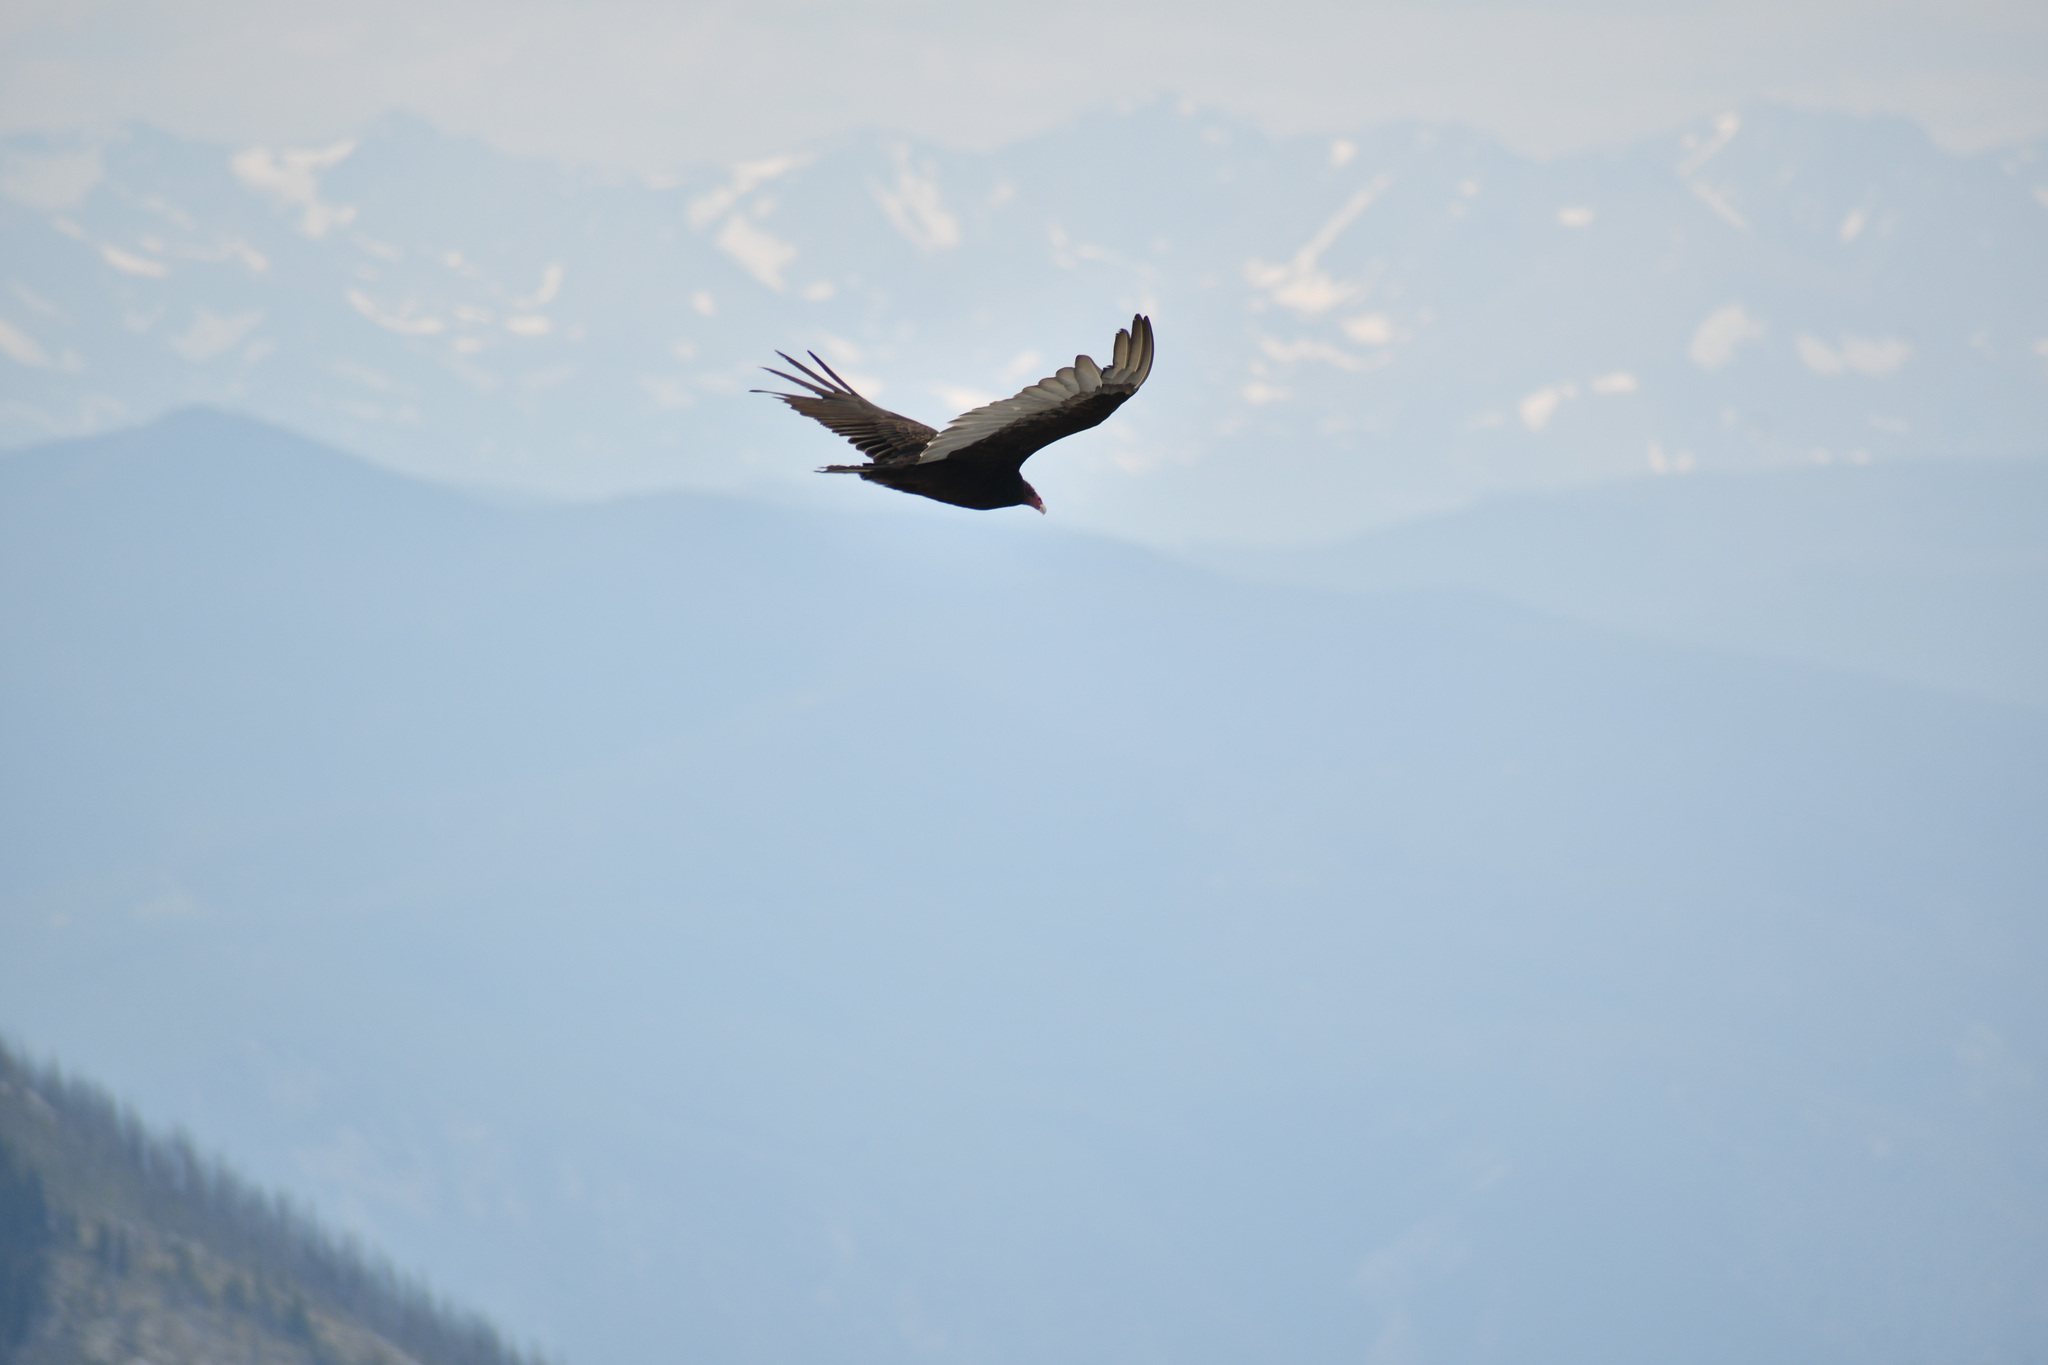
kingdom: Animalia
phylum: Chordata
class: Aves
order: Accipitriformes
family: Cathartidae
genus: Cathartes
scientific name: Cathartes aura
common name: Turkey vulture
